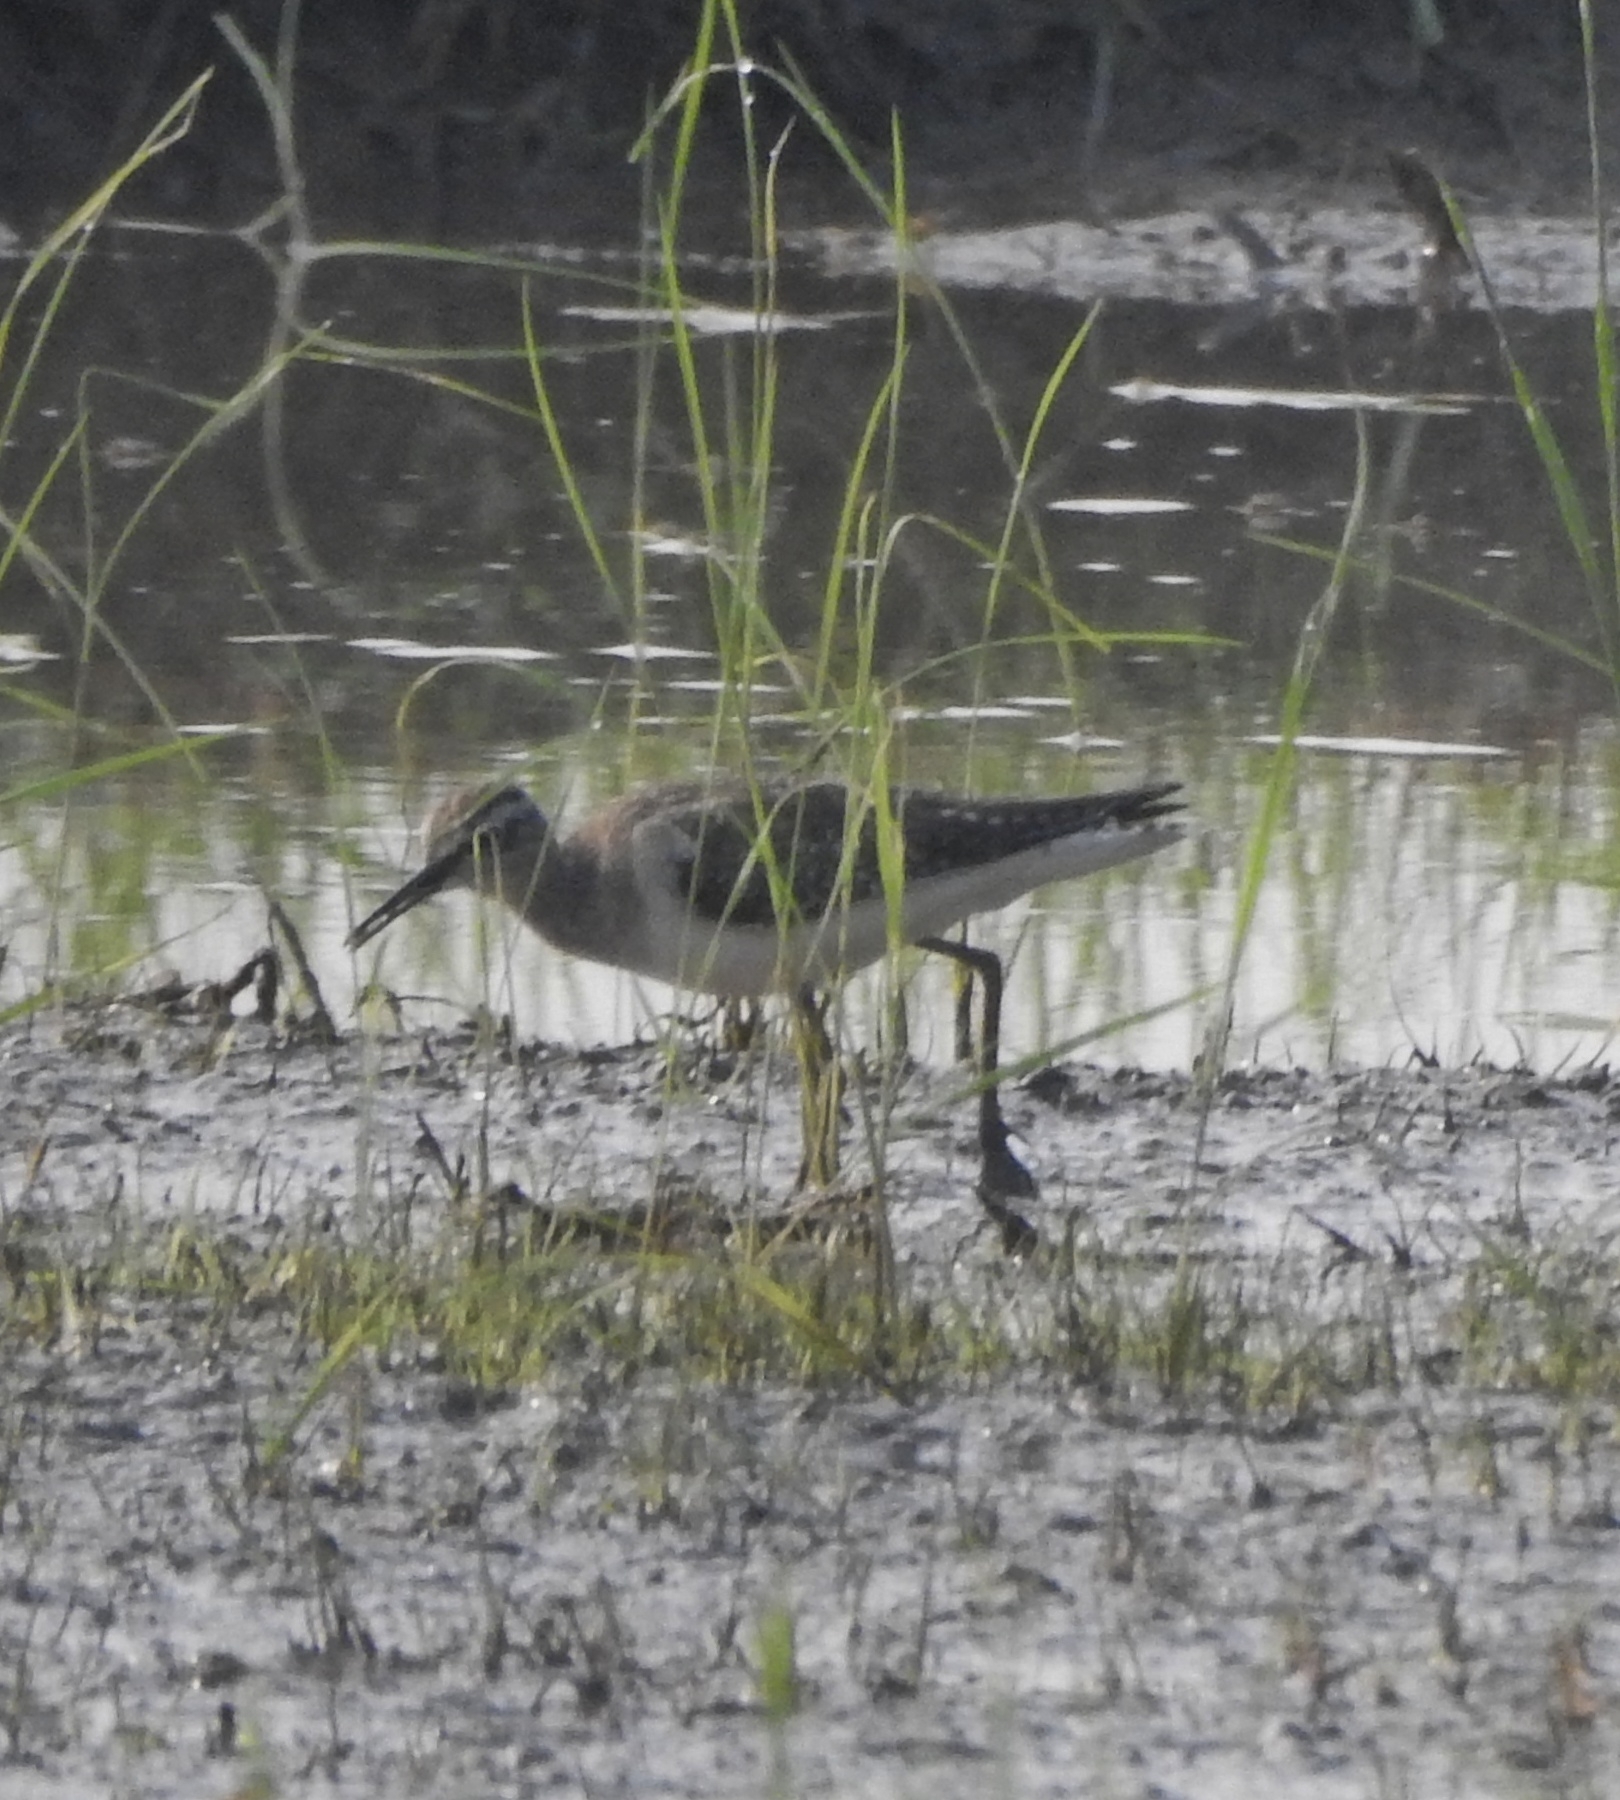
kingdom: Animalia
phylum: Chordata
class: Aves
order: Charadriiformes
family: Scolopacidae
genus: Tringa
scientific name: Tringa glareola
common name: Wood sandpiper
